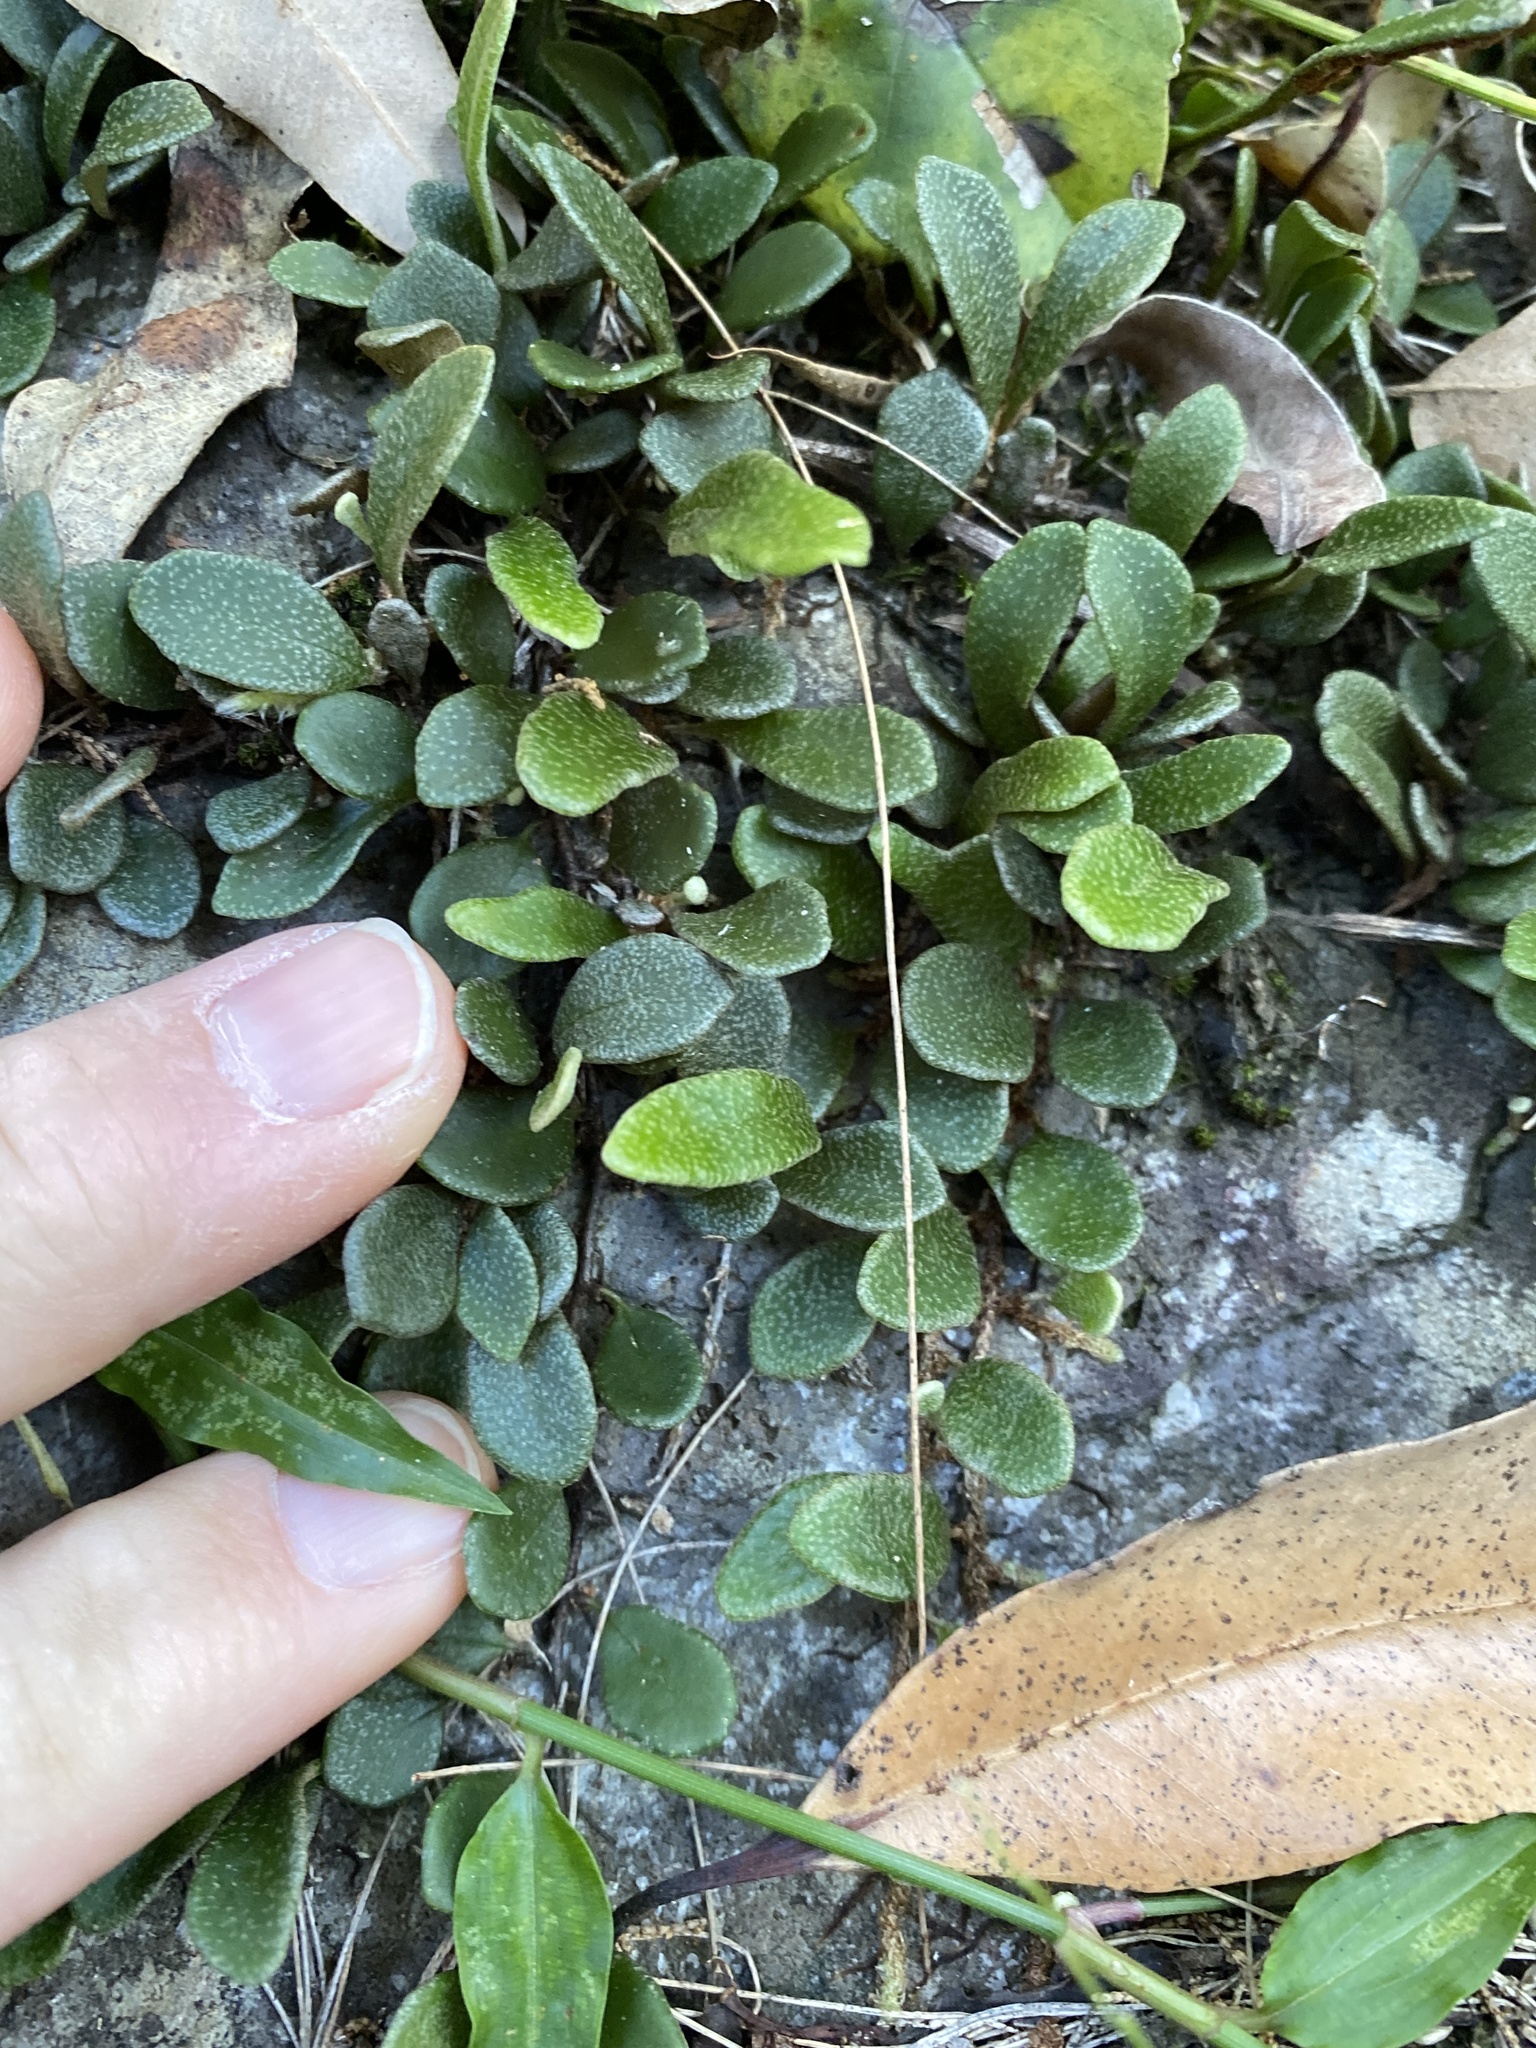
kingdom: Plantae
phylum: Tracheophyta
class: Polypodiopsida
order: Polypodiales
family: Polypodiaceae
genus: Pyrrosia
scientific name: Pyrrosia rupestris
